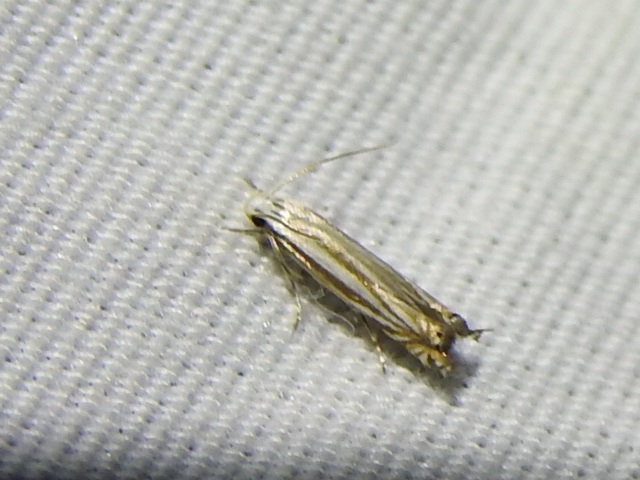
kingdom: Animalia
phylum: Arthropoda
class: Insecta
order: Lepidoptera
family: Gelechiidae
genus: Polyhymno
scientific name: Polyhymno luteostrigella
